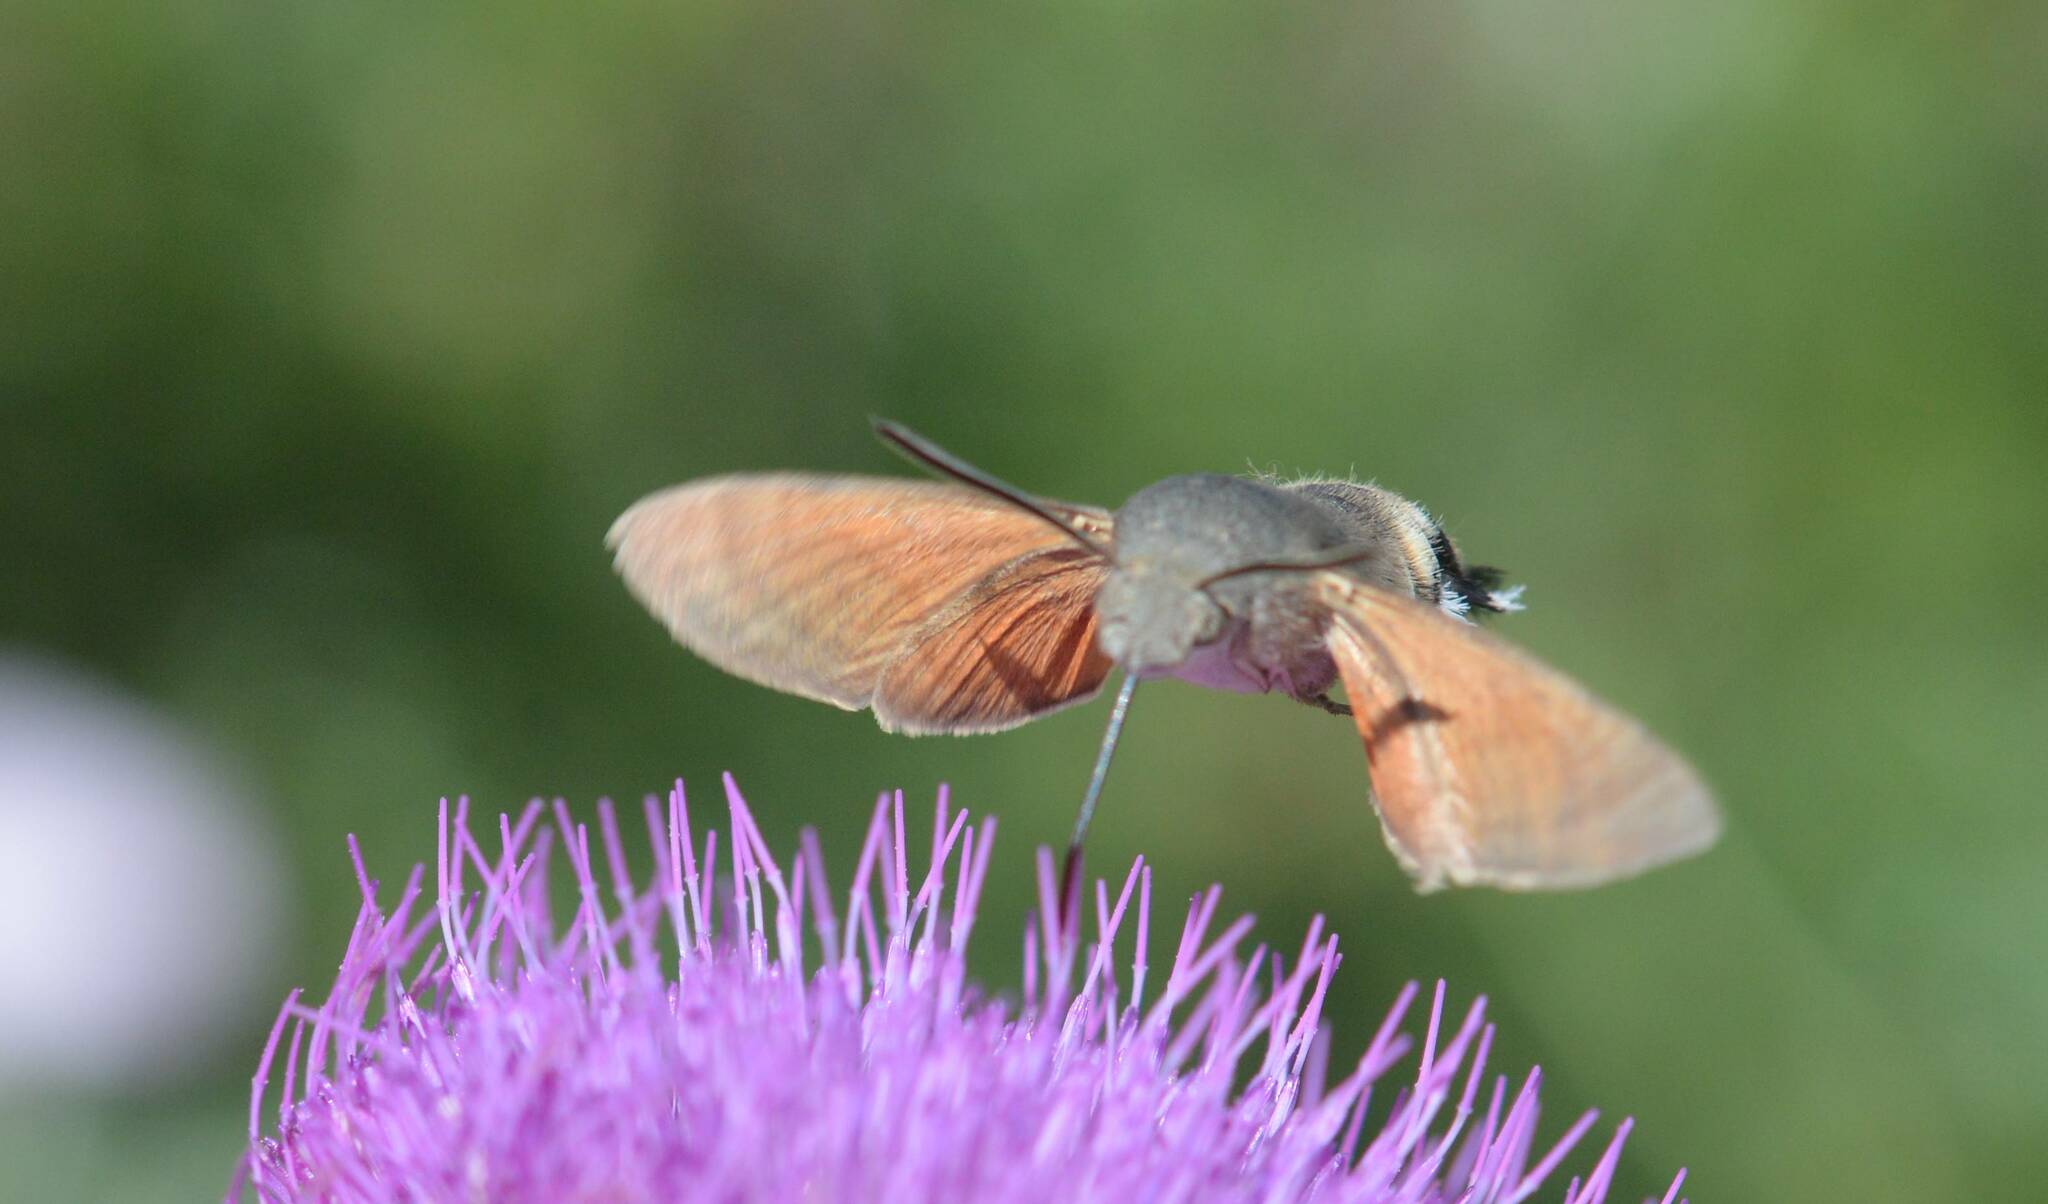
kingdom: Animalia
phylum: Arthropoda
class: Insecta
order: Lepidoptera
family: Sphingidae
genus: Macroglossum
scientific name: Macroglossum stellatarum
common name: Humming-bird hawk-moth
